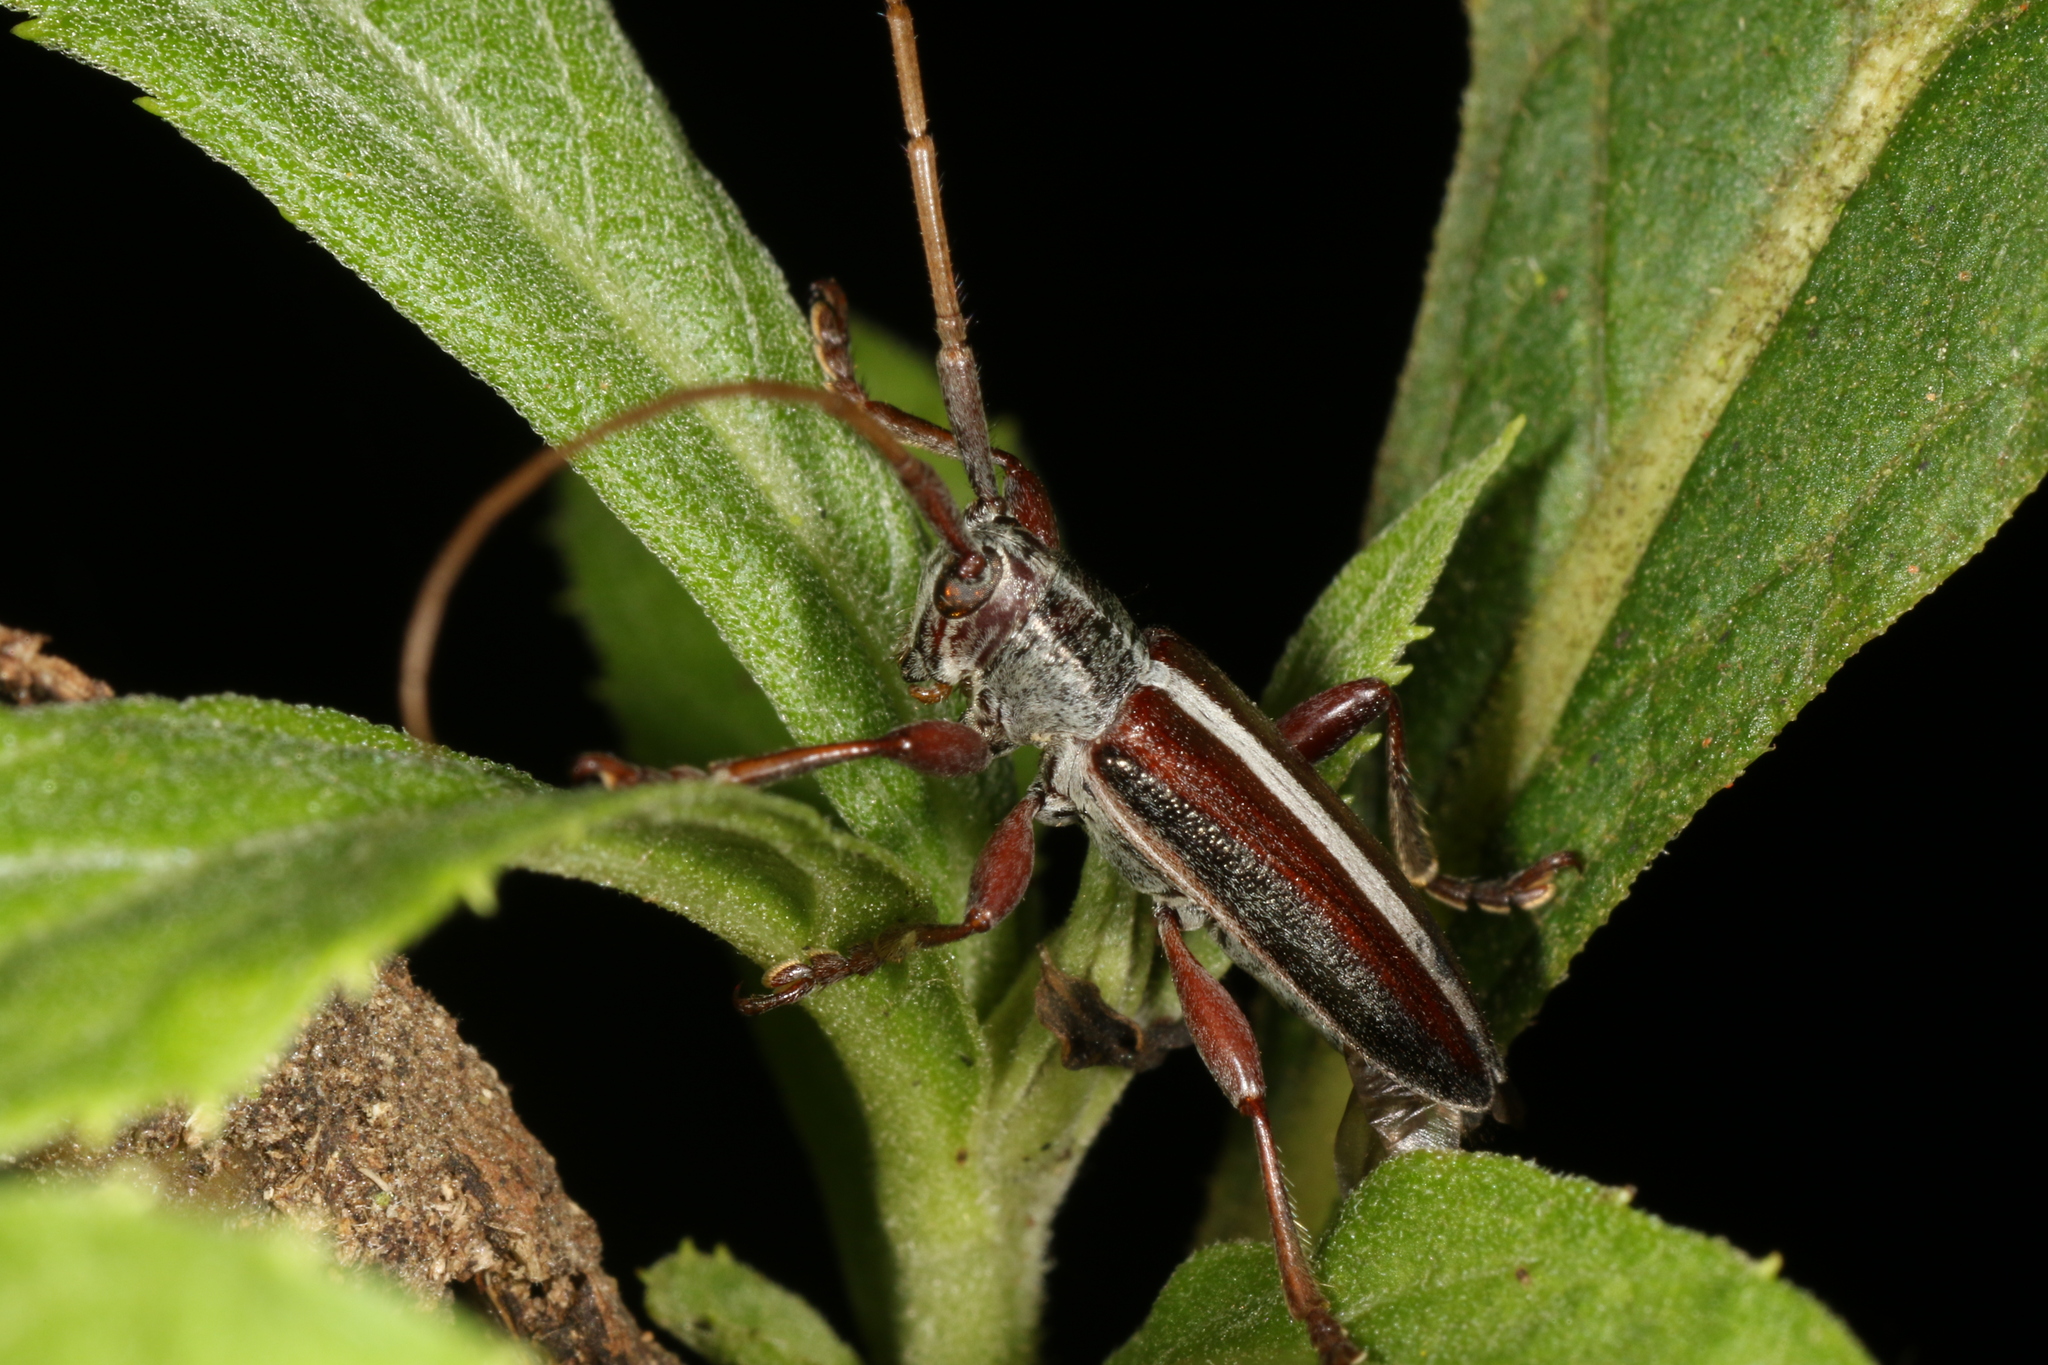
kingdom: Animalia
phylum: Arthropoda
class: Insecta
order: Coleoptera
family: Cerambycidae
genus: Onocephala
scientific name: Onocephala thomsoni
